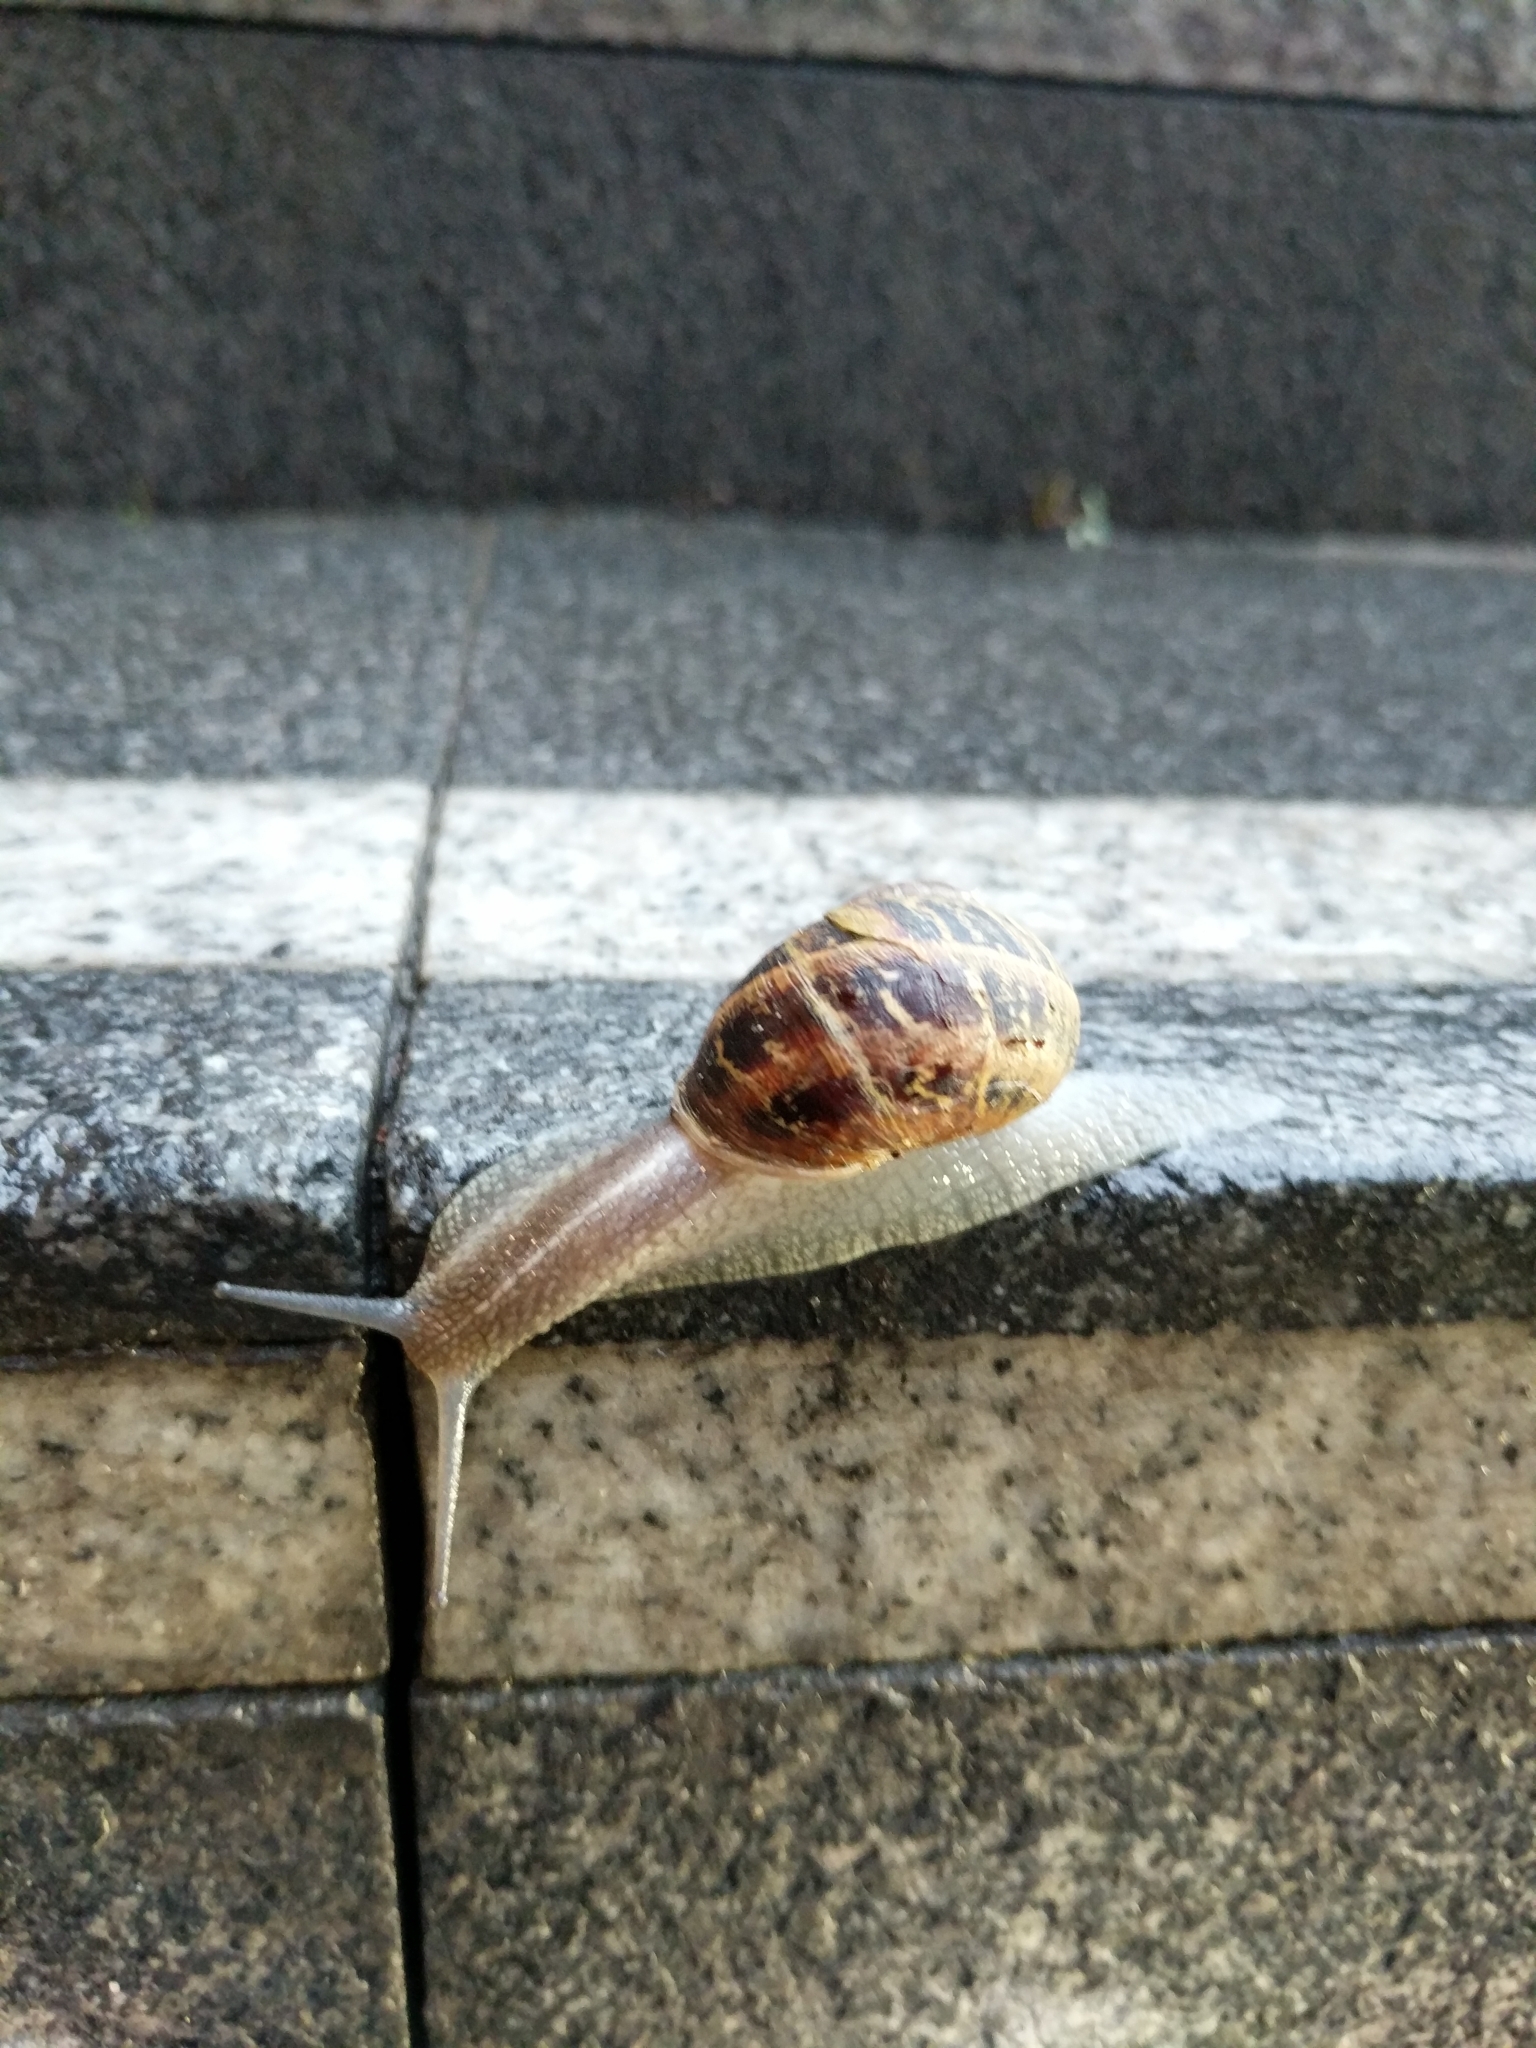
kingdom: Animalia
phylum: Mollusca
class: Gastropoda
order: Stylommatophora
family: Helicidae
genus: Cornu
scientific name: Cornu aspersum
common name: Brown garden snail
